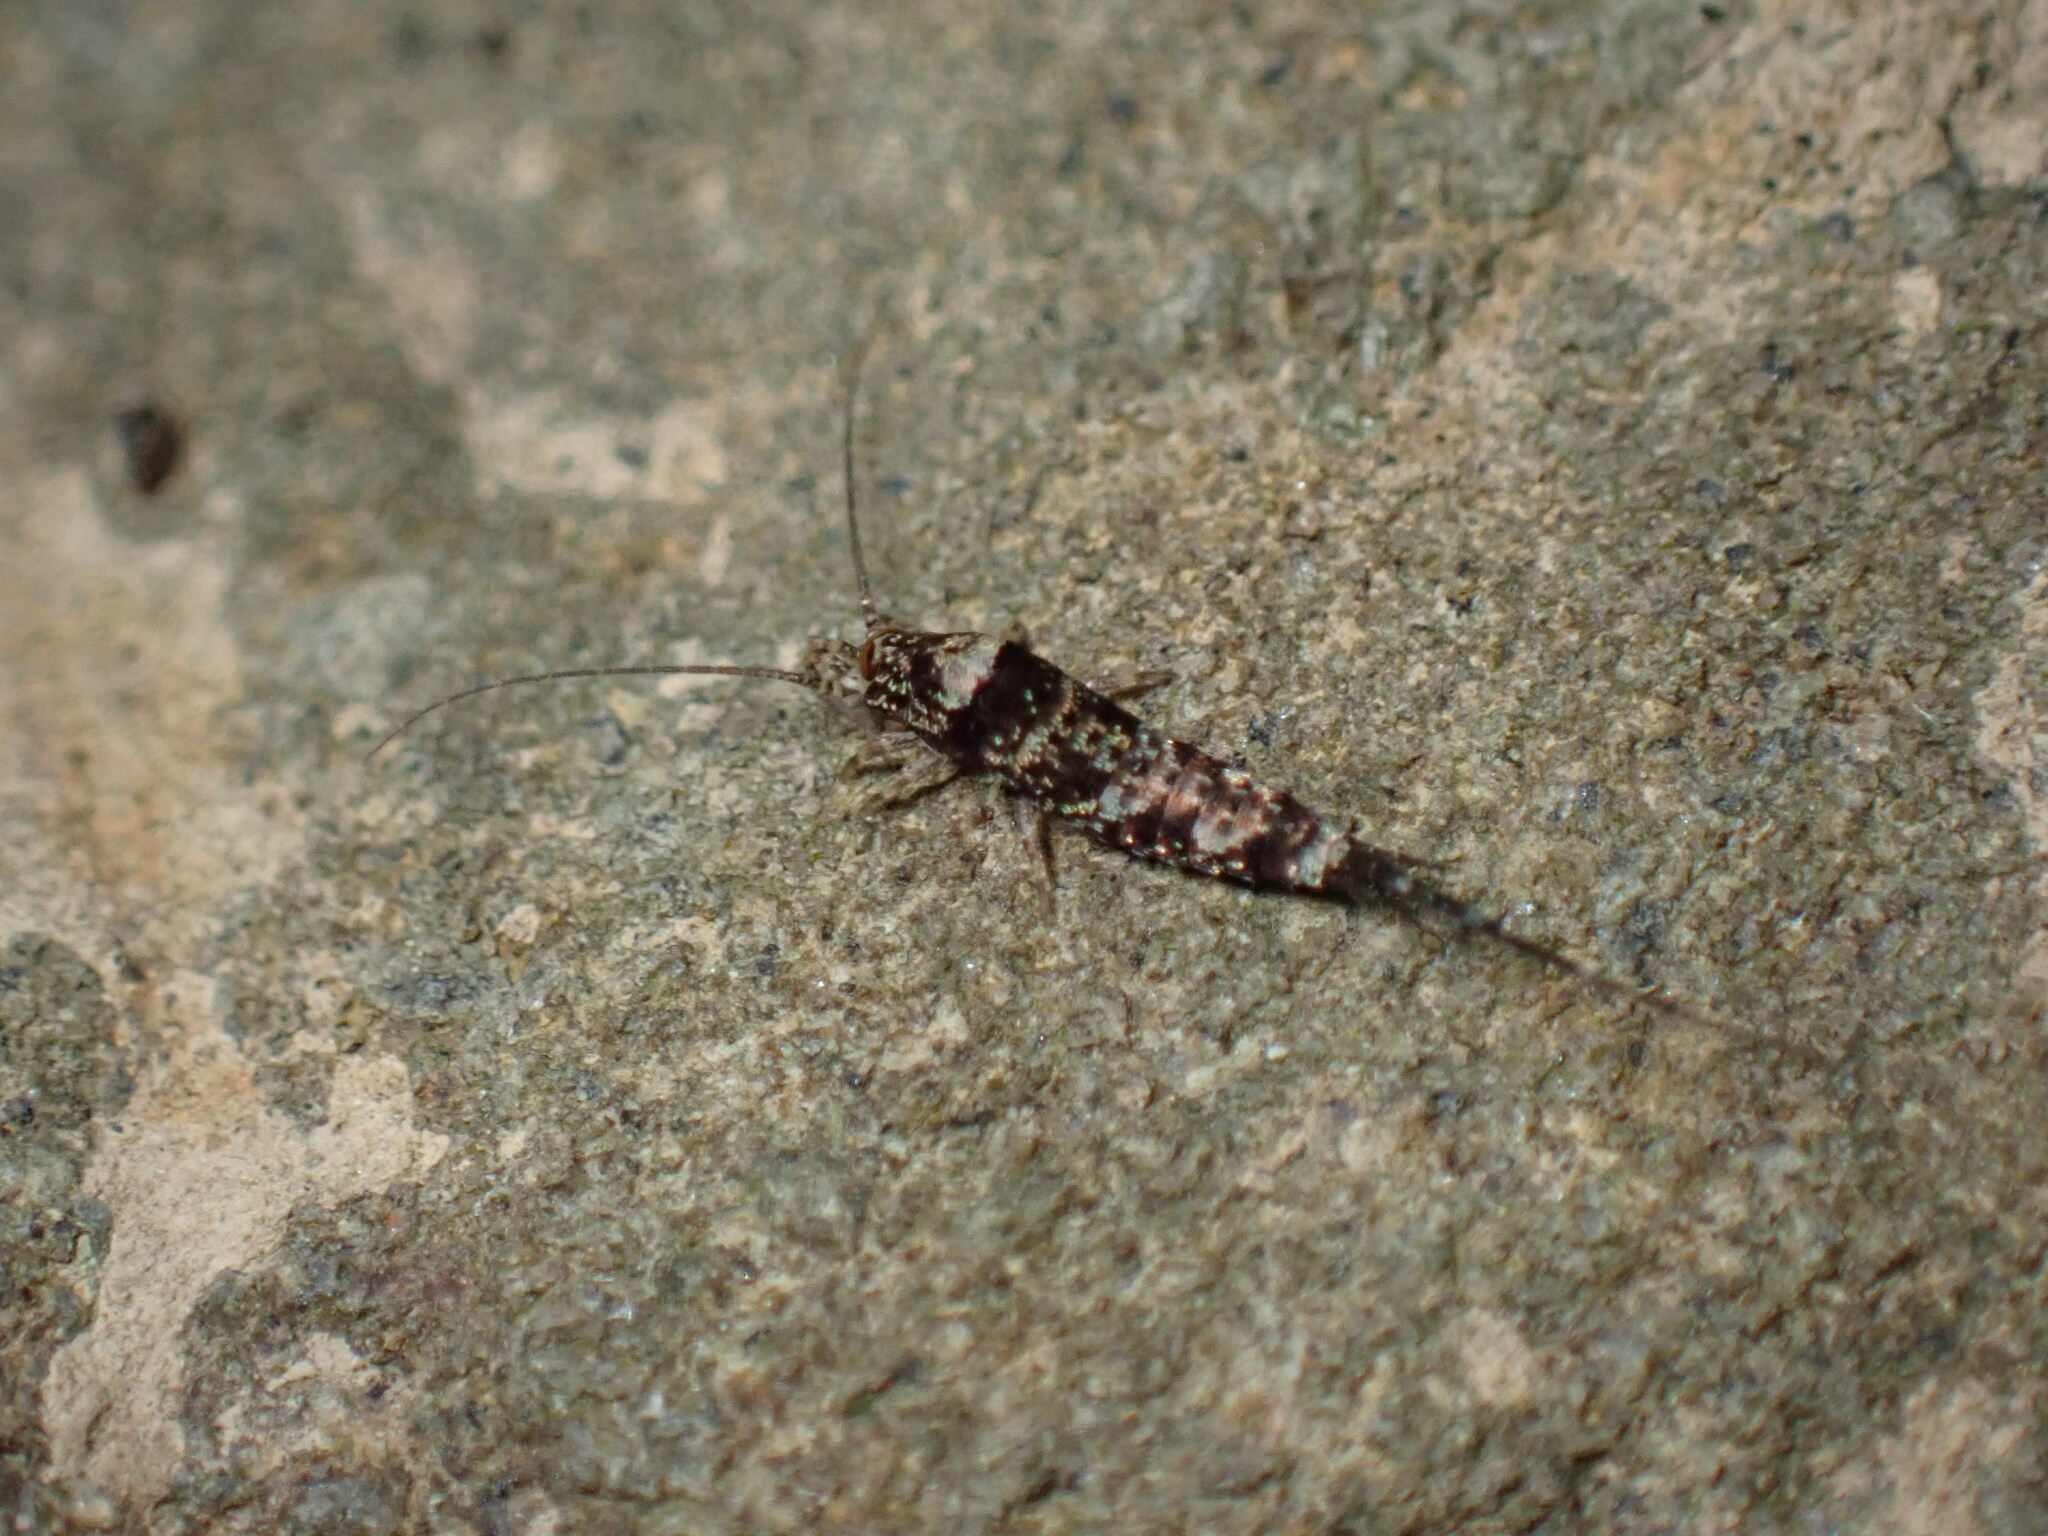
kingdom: Animalia
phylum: Arthropoda
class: Insecta
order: Archaeognatha
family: Machilidae
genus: Trigoniophthalmus
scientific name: Trigoniophthalmus alternatus
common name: Jumping bristletail
